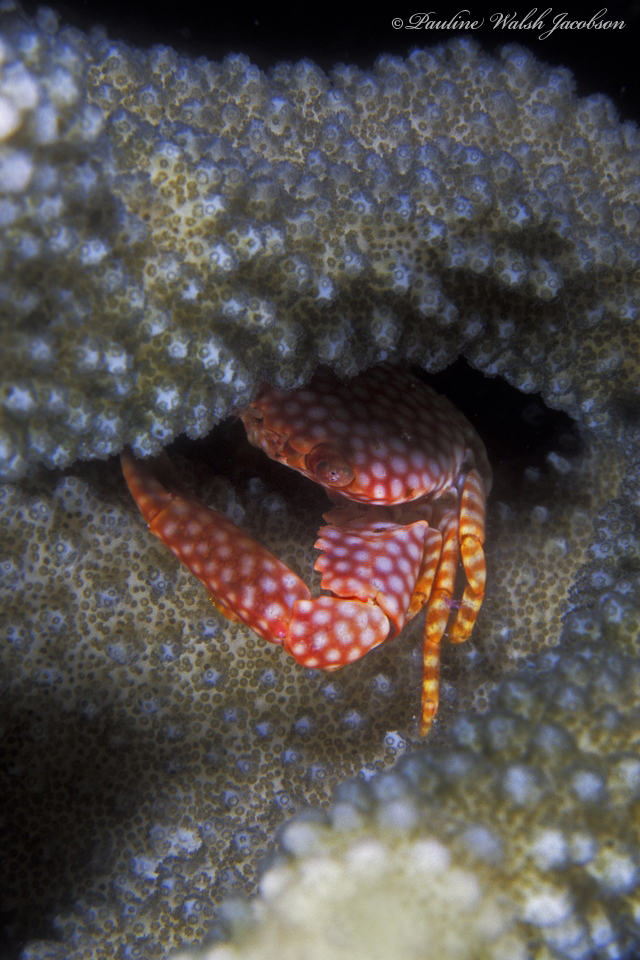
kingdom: Animalia
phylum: Arthropoda
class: Malacostraca
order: Decapoda
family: Trapeziidae
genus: Trapezia
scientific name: Trapezia flavopunctata
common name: Yellow-spotted guard crab
